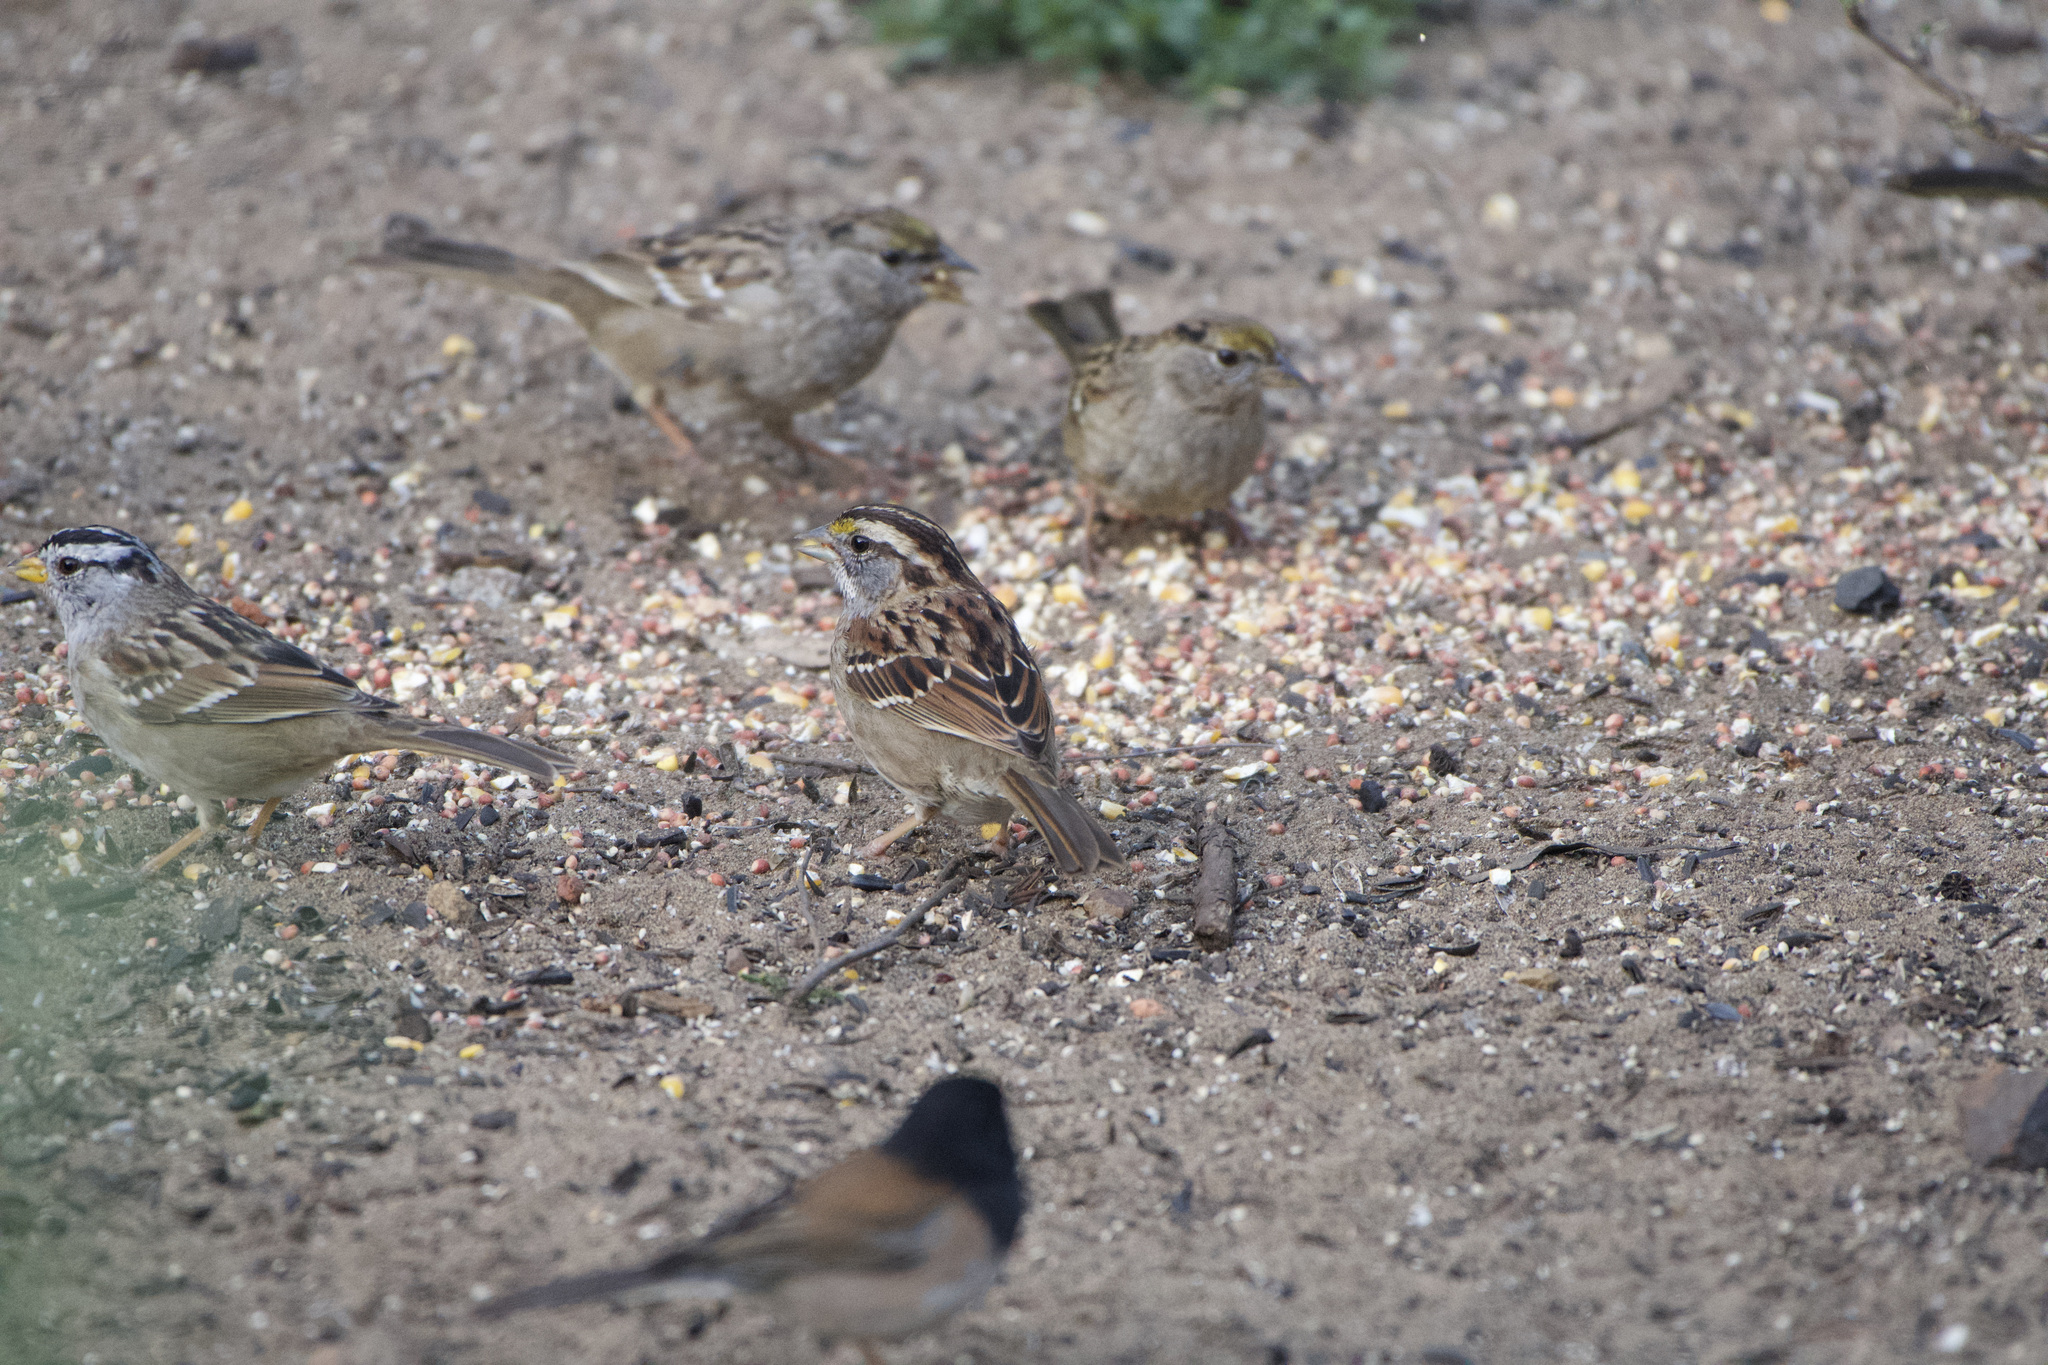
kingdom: Animalia
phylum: Chordata
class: Aves
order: Passeriformes
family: Passerellidae
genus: Zonotrichia
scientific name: Zonotrichia albicollis
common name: White-throated sparrow
